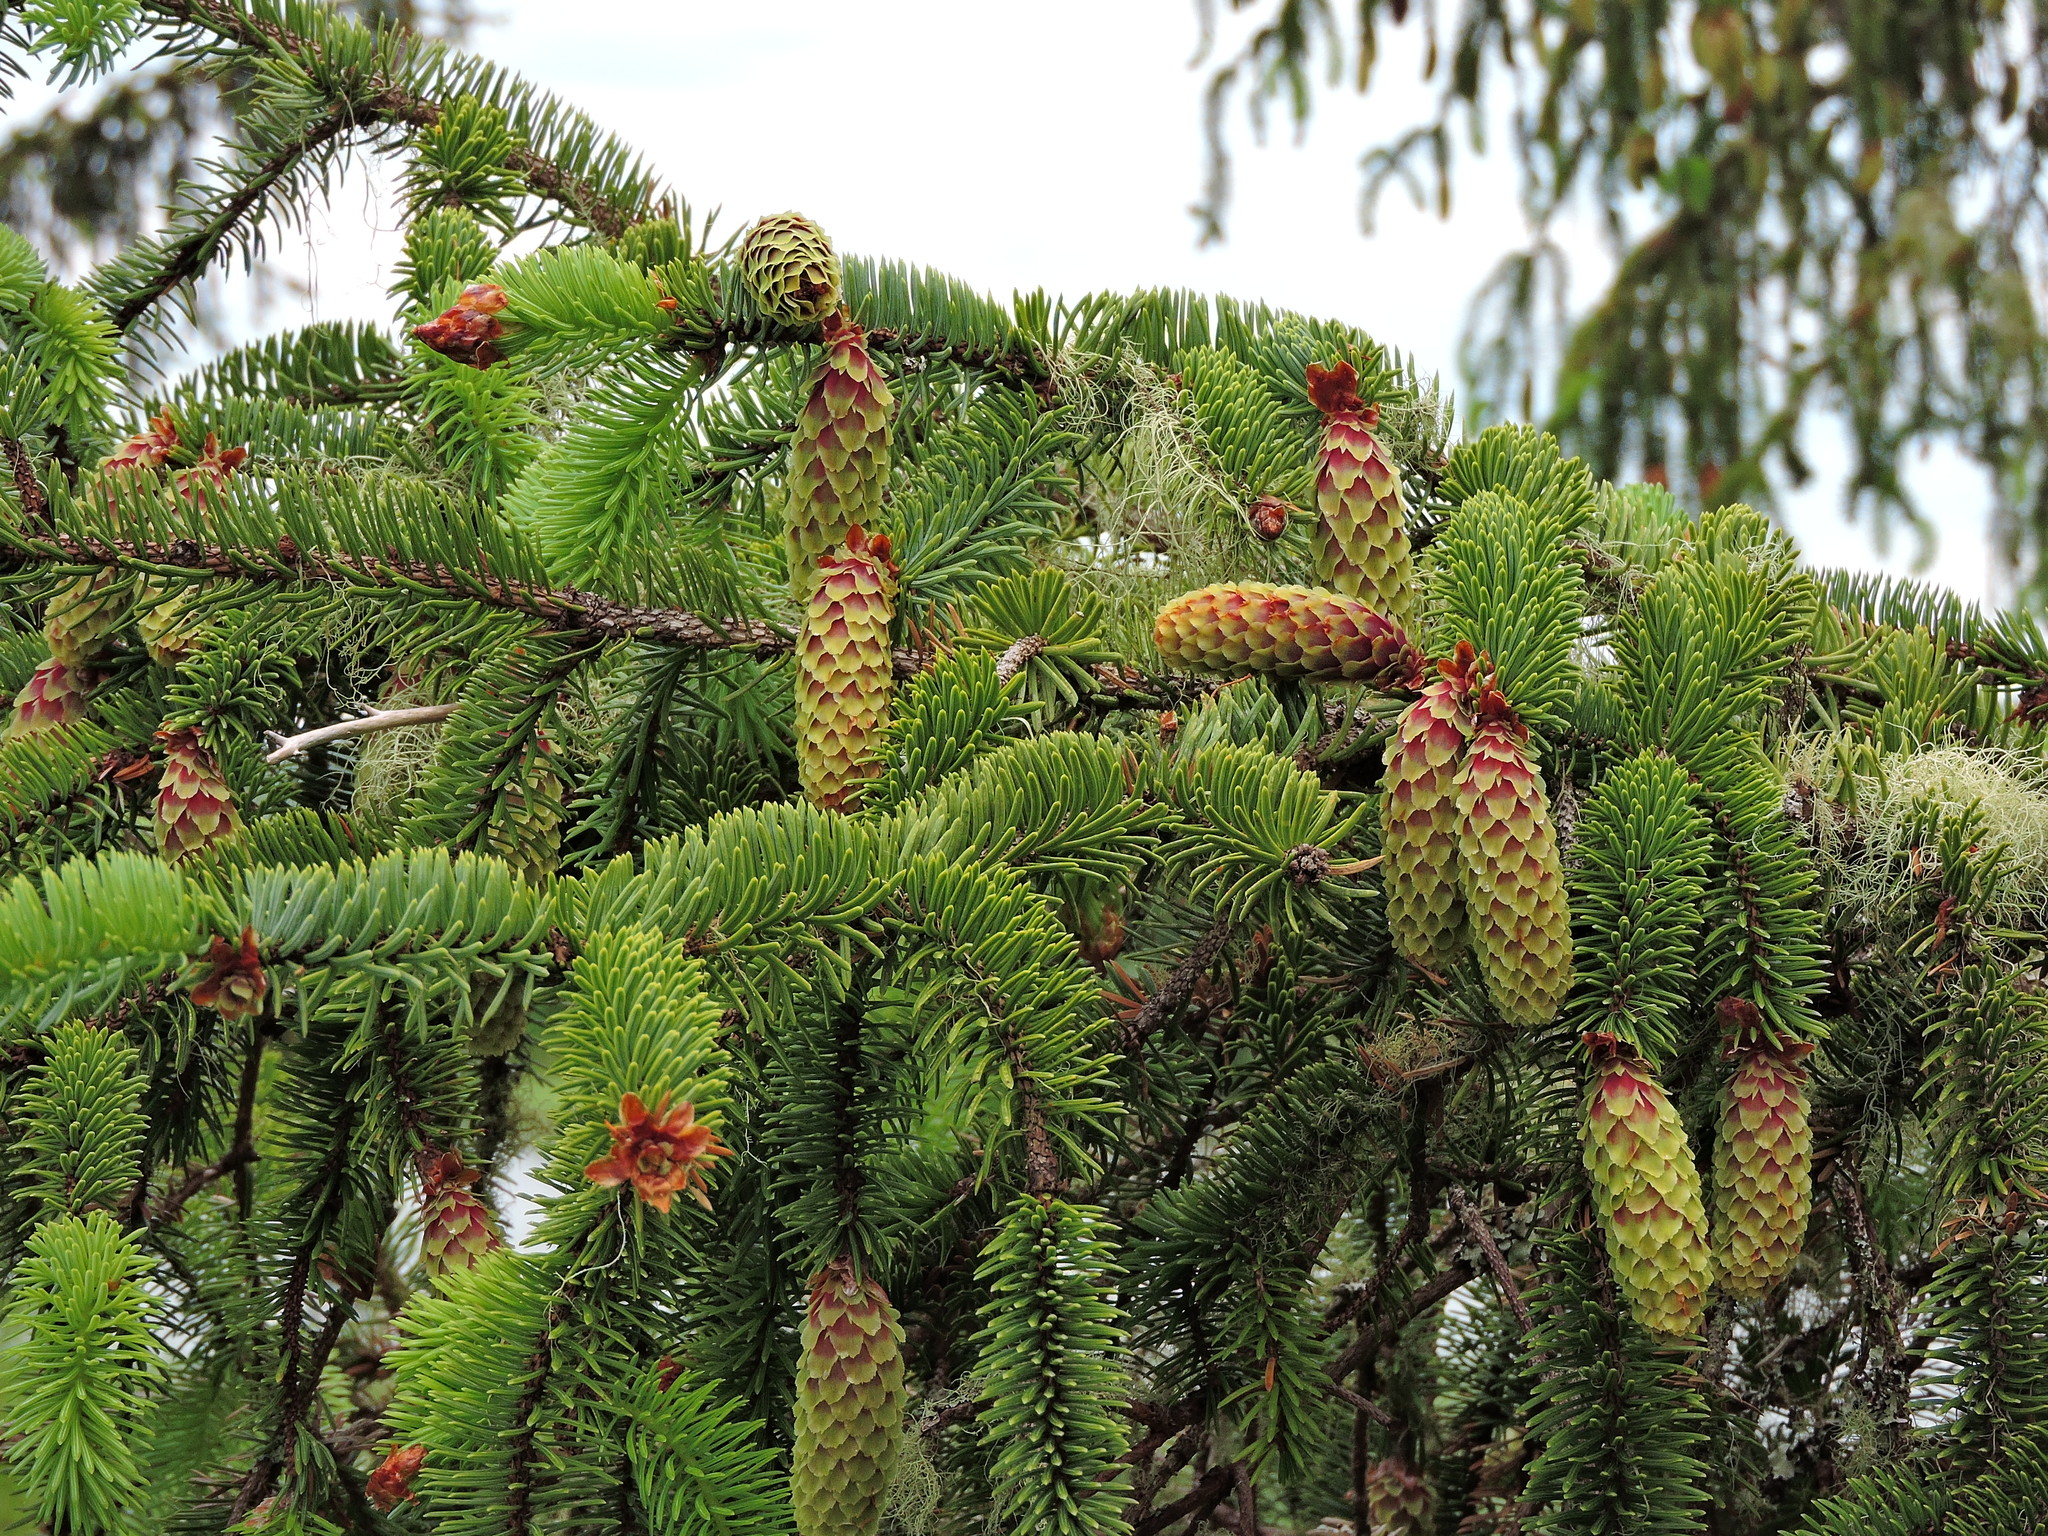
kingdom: Plantae
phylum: Tracheophyta
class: Pinopsida
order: Pinales
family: Pinaceae
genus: Picea
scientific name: Picea sitchensis
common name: Sitka spruce
